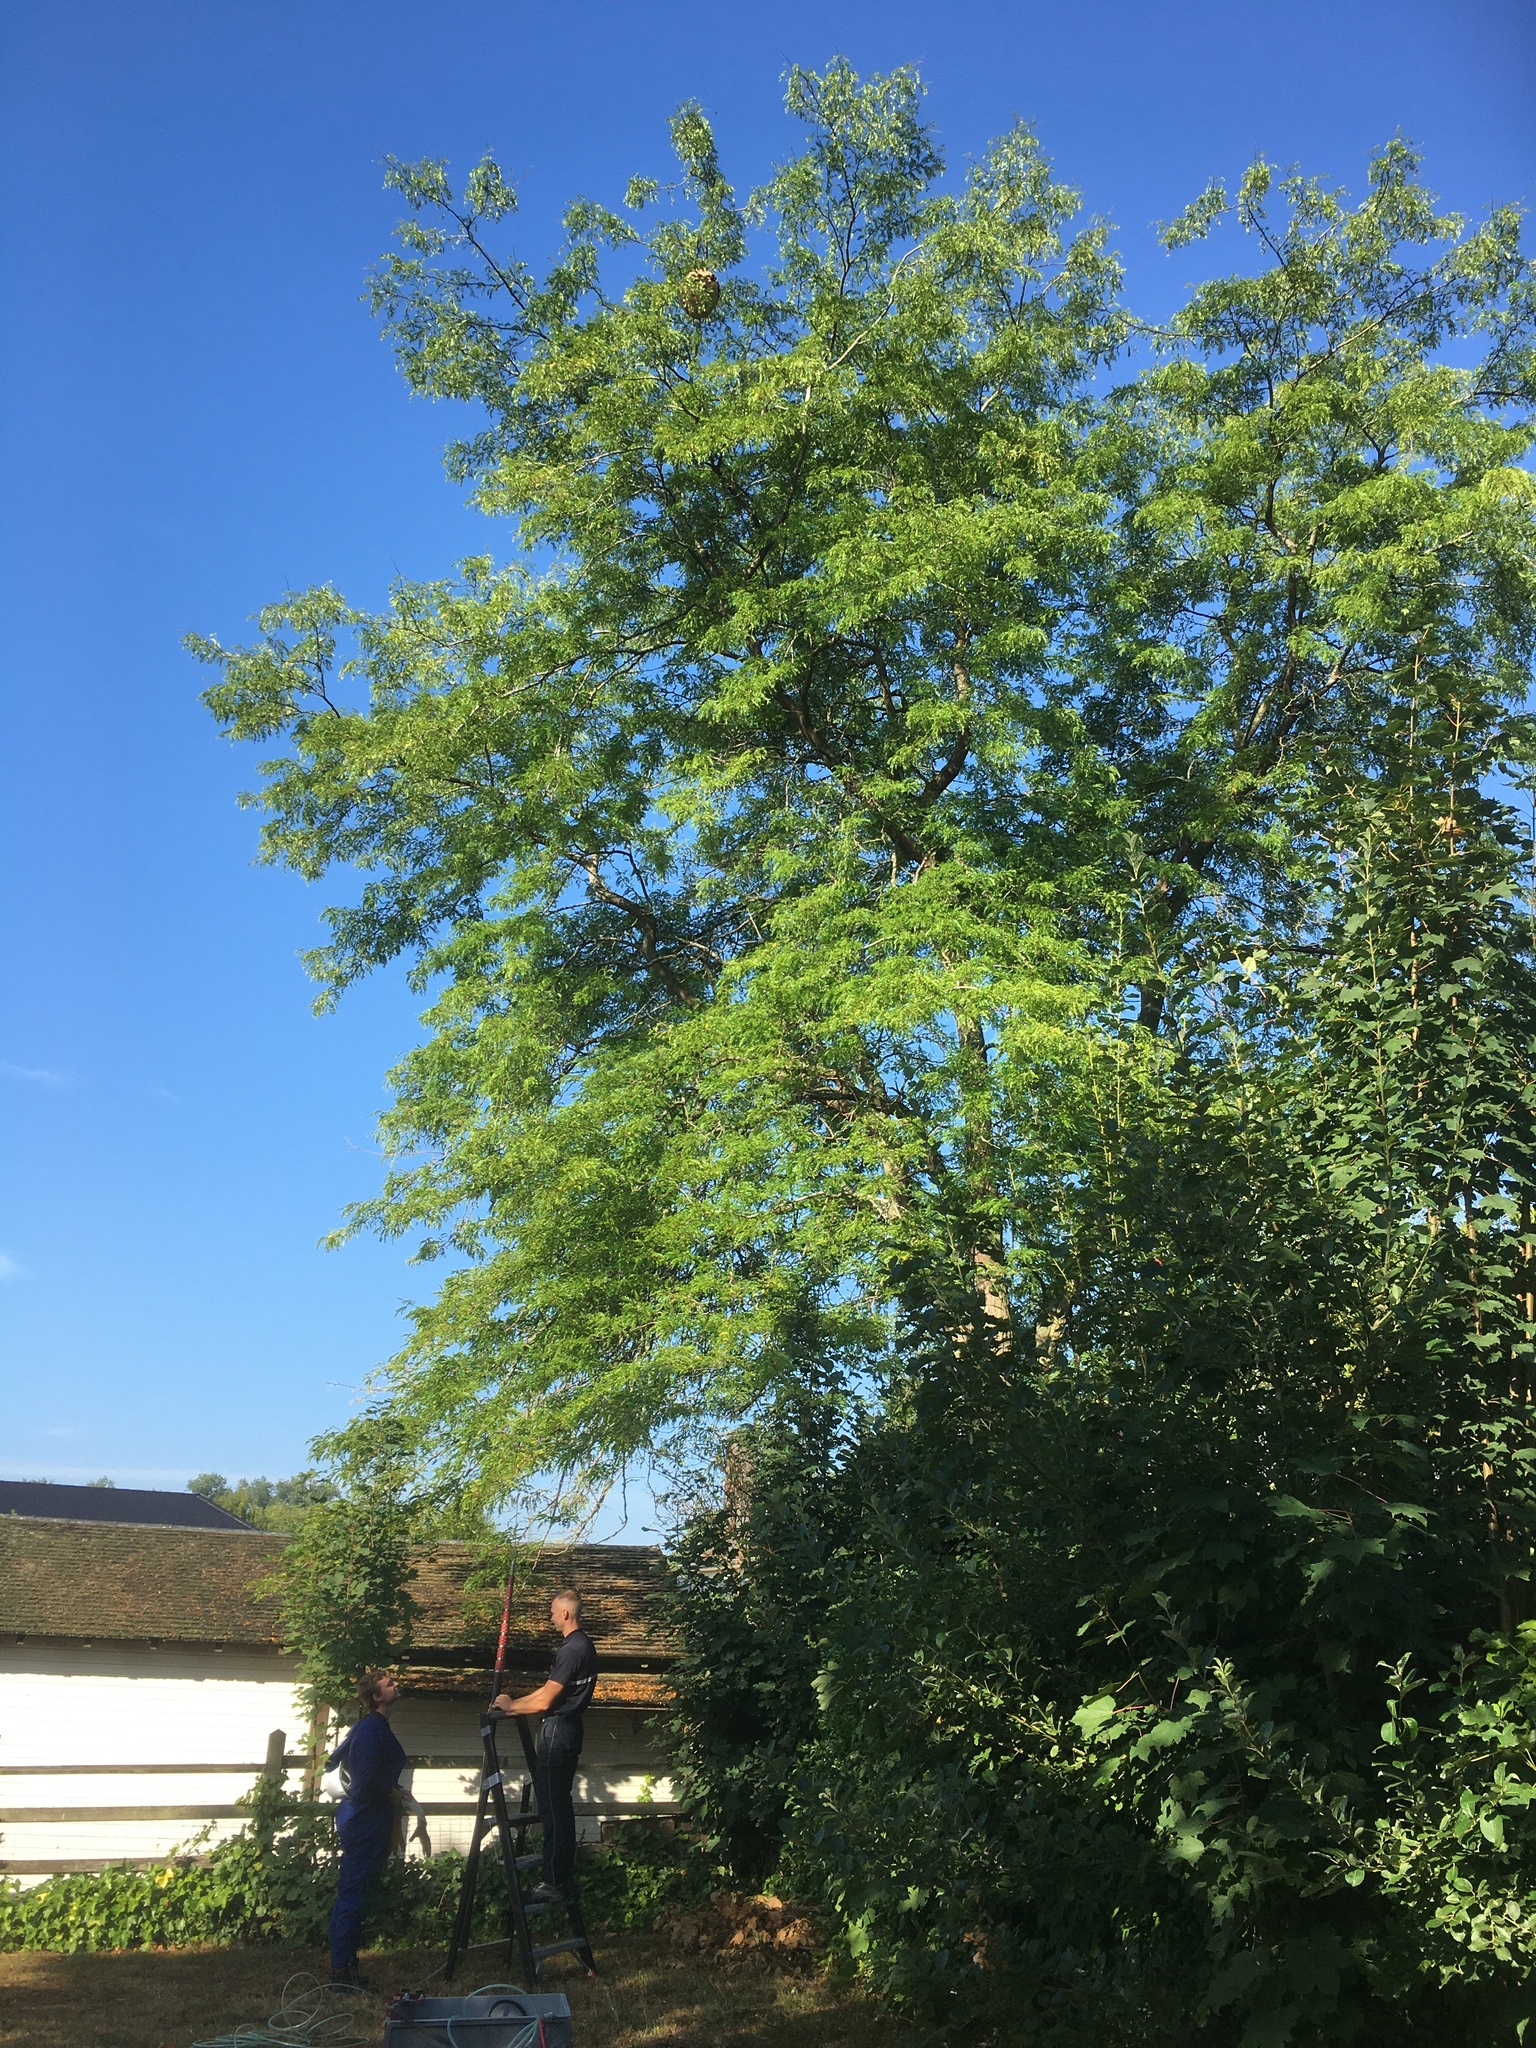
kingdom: Animalia
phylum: Arthropoda
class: Insecta
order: Hymenoptera
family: Vespidae
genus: Vespa
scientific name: Vespa velutina
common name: Asian hornet
